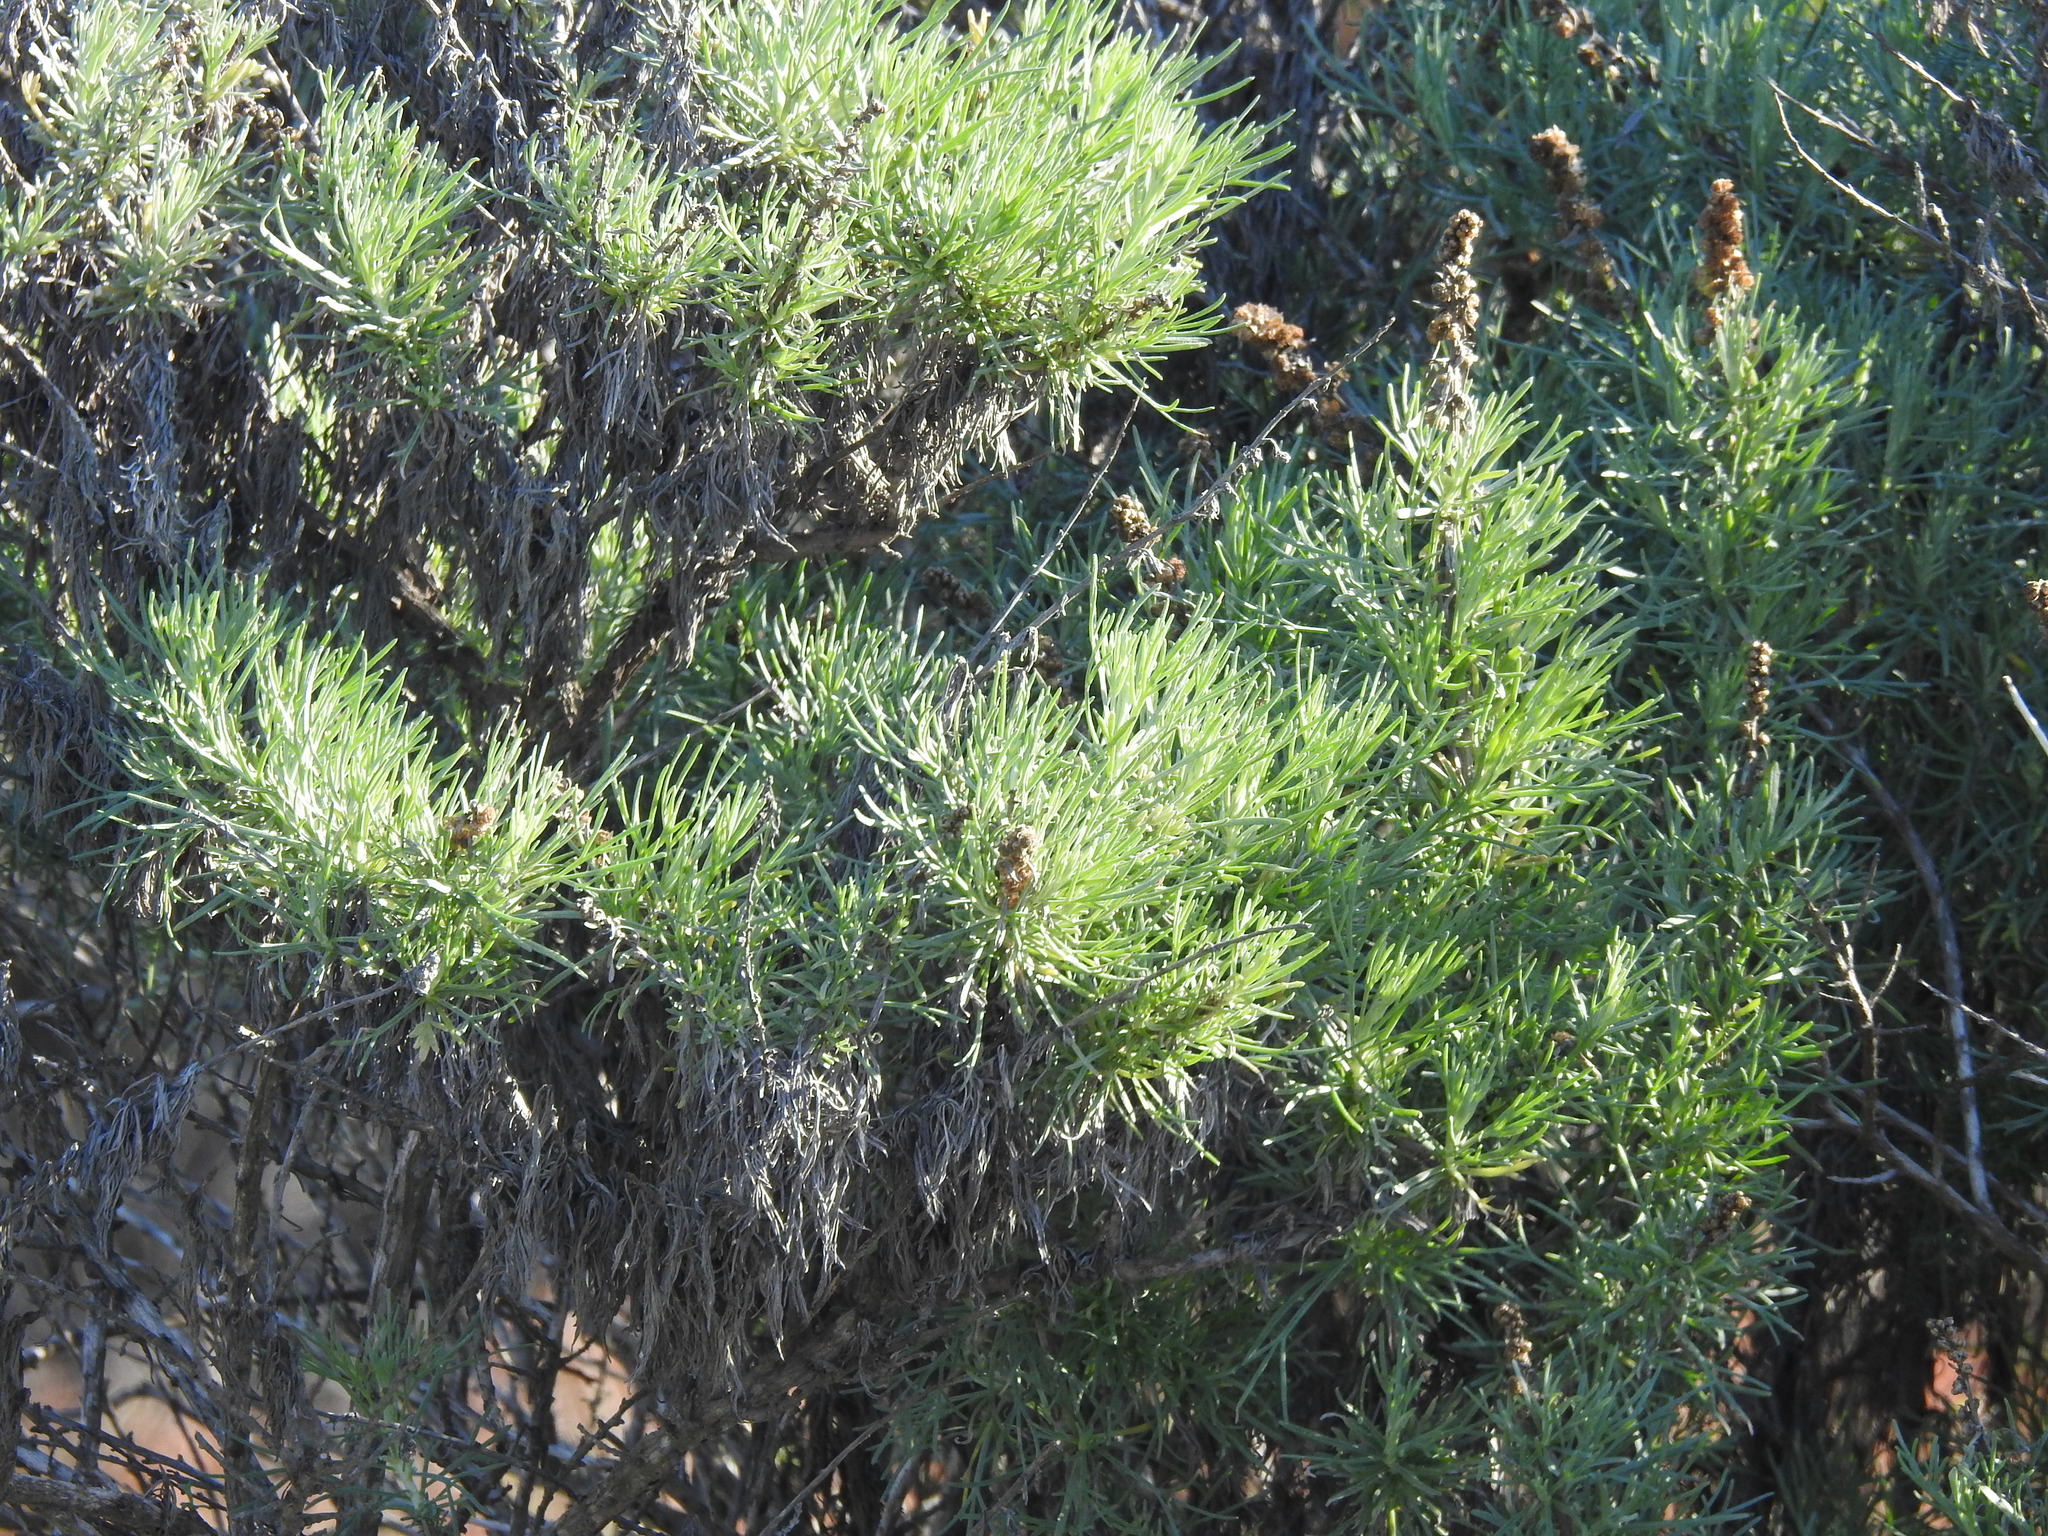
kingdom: Plantae
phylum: Tracheophyta
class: Magnoliopsida
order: Asterales
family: Asteraceae
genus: Artemisia
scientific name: Artemisia californica
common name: California sagebrush
